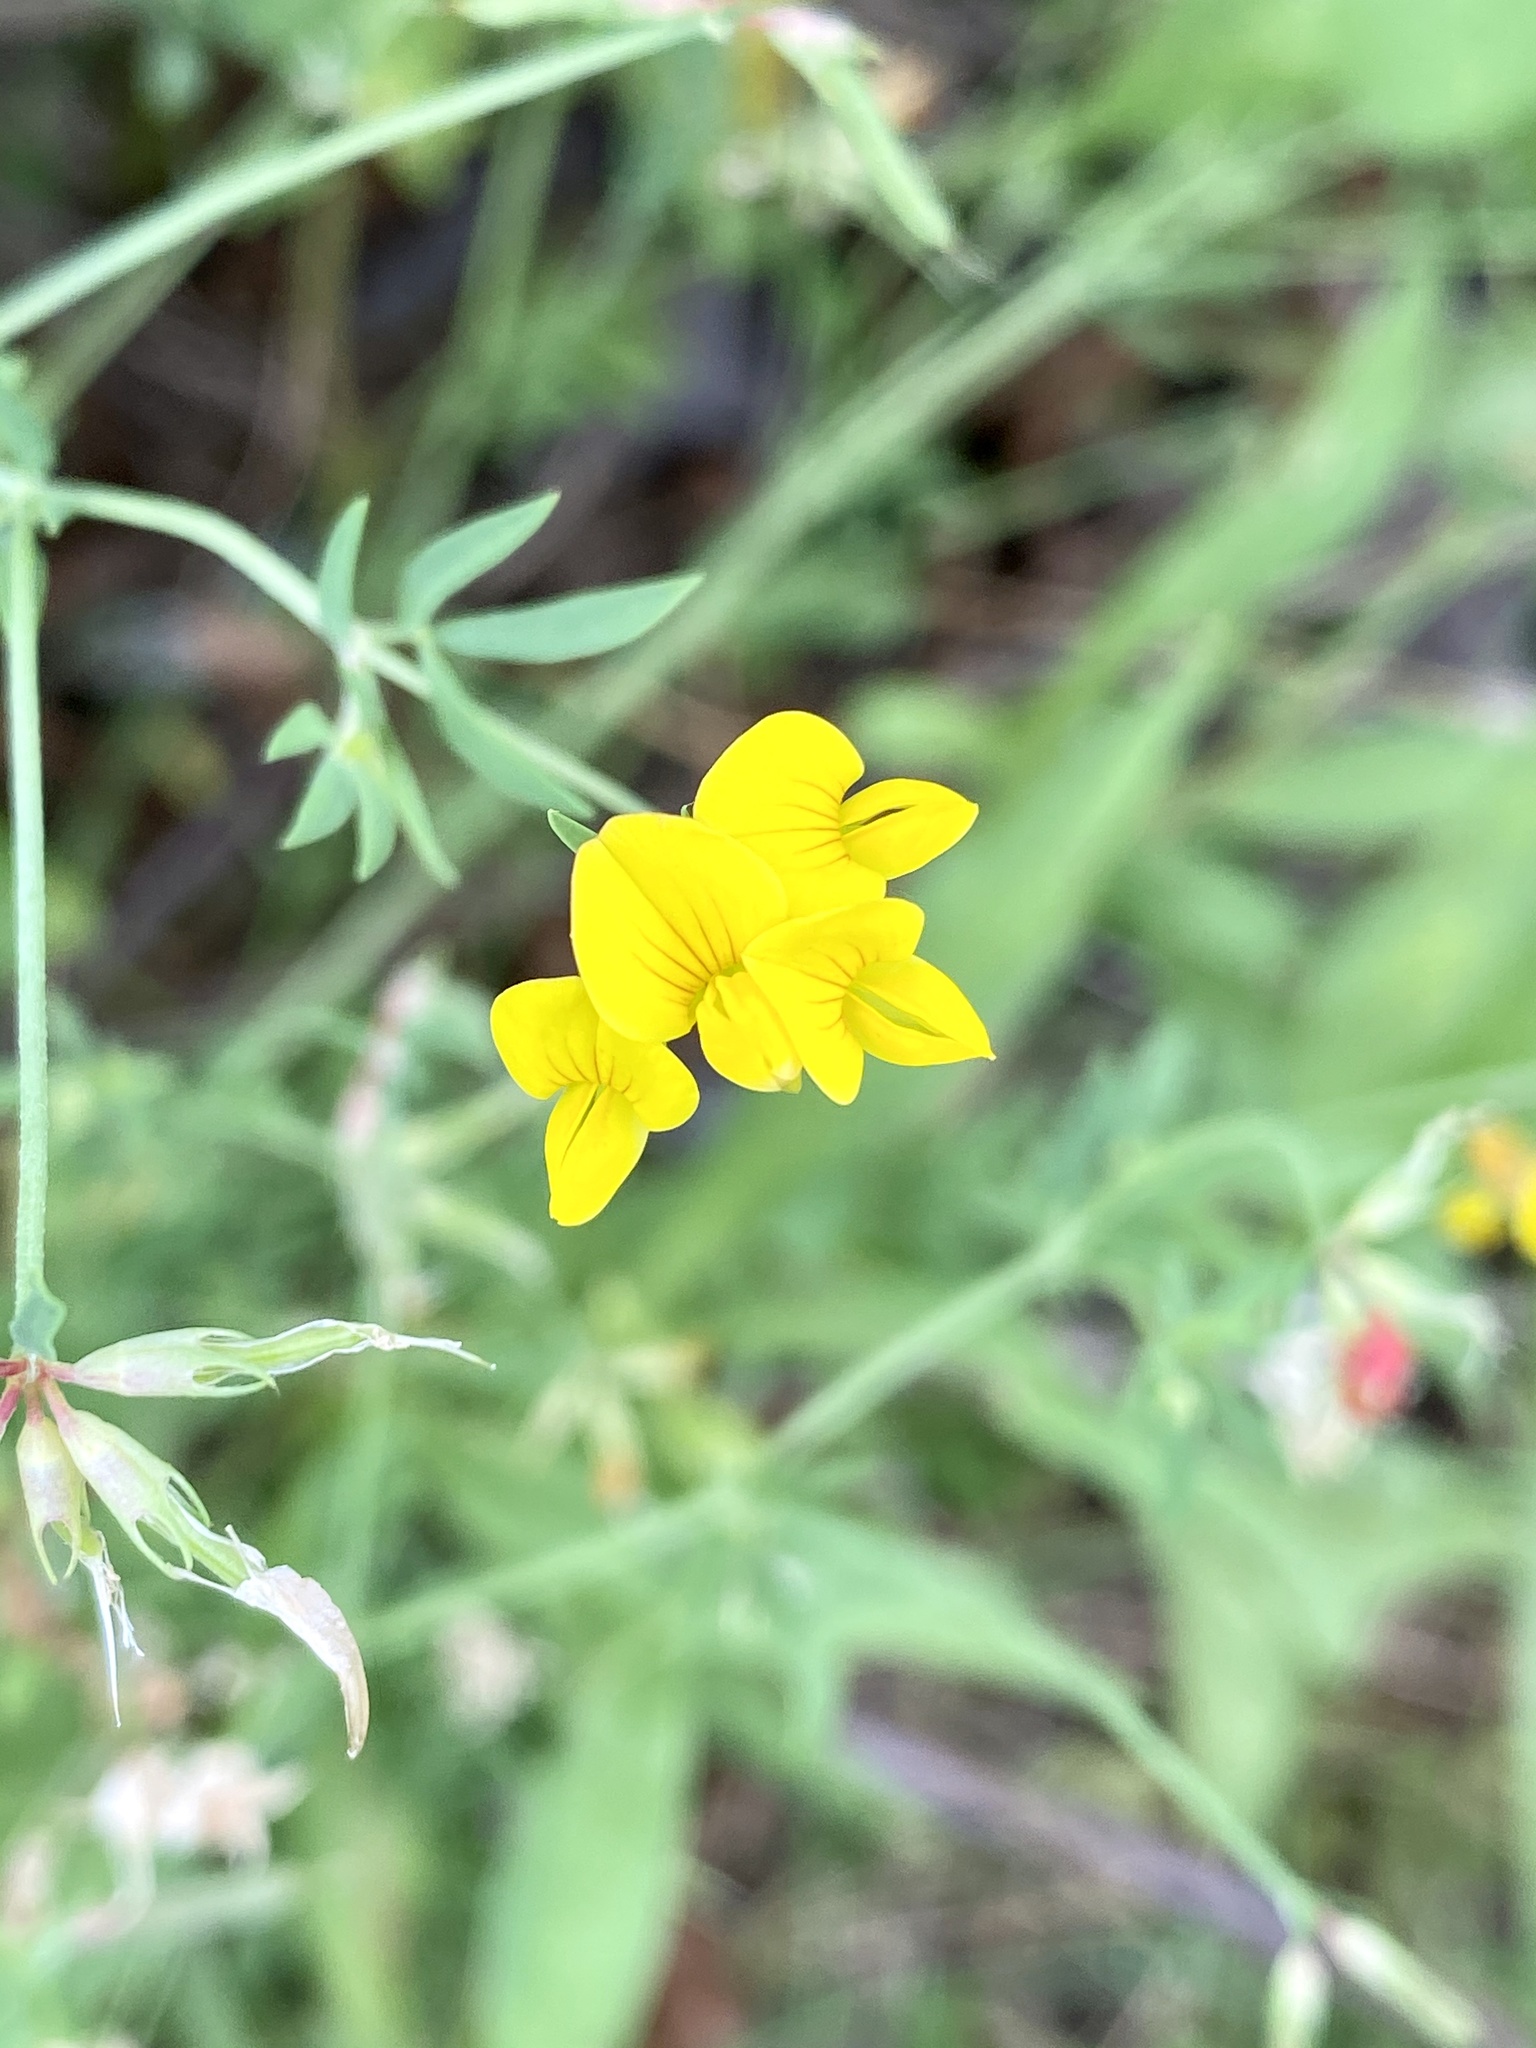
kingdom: Plantae
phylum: Tracheophyta
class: Magnoliopsida
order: Fabales
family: Fabaceae
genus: Lotus
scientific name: Lotus corniculatus
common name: Common bird's-foot-trefoil
